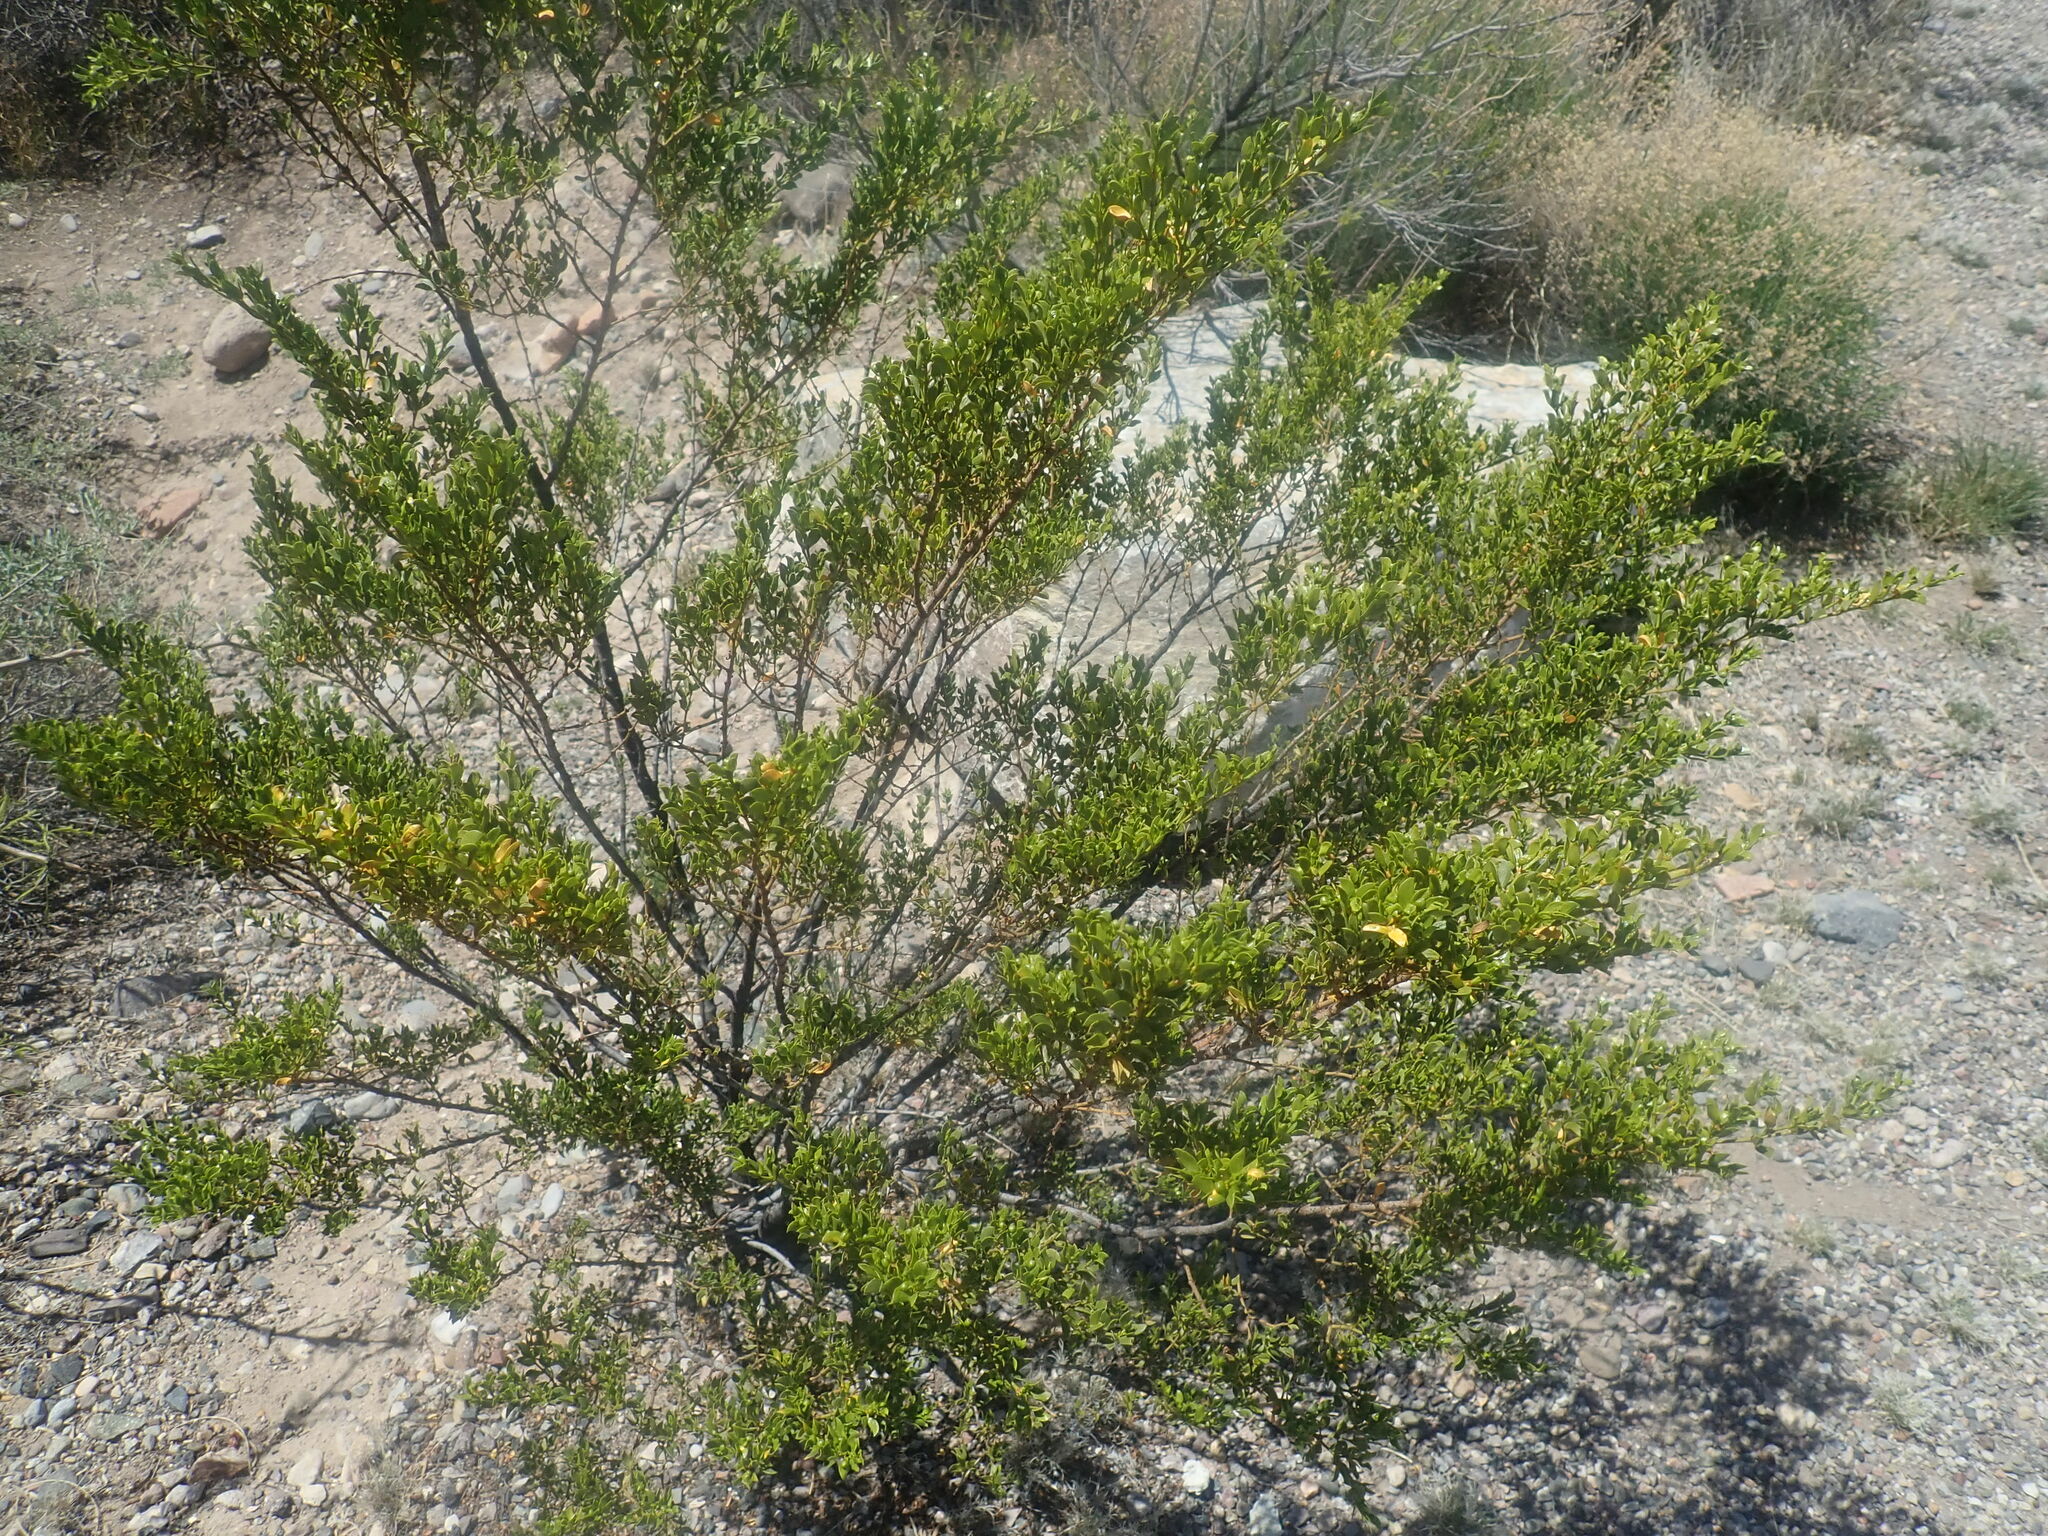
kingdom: Plantae
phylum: Tracheophyta
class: Magnoliopsida
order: Zygophyllales
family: Zygophyllaceae
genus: Larrea
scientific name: Larrea tridentata
